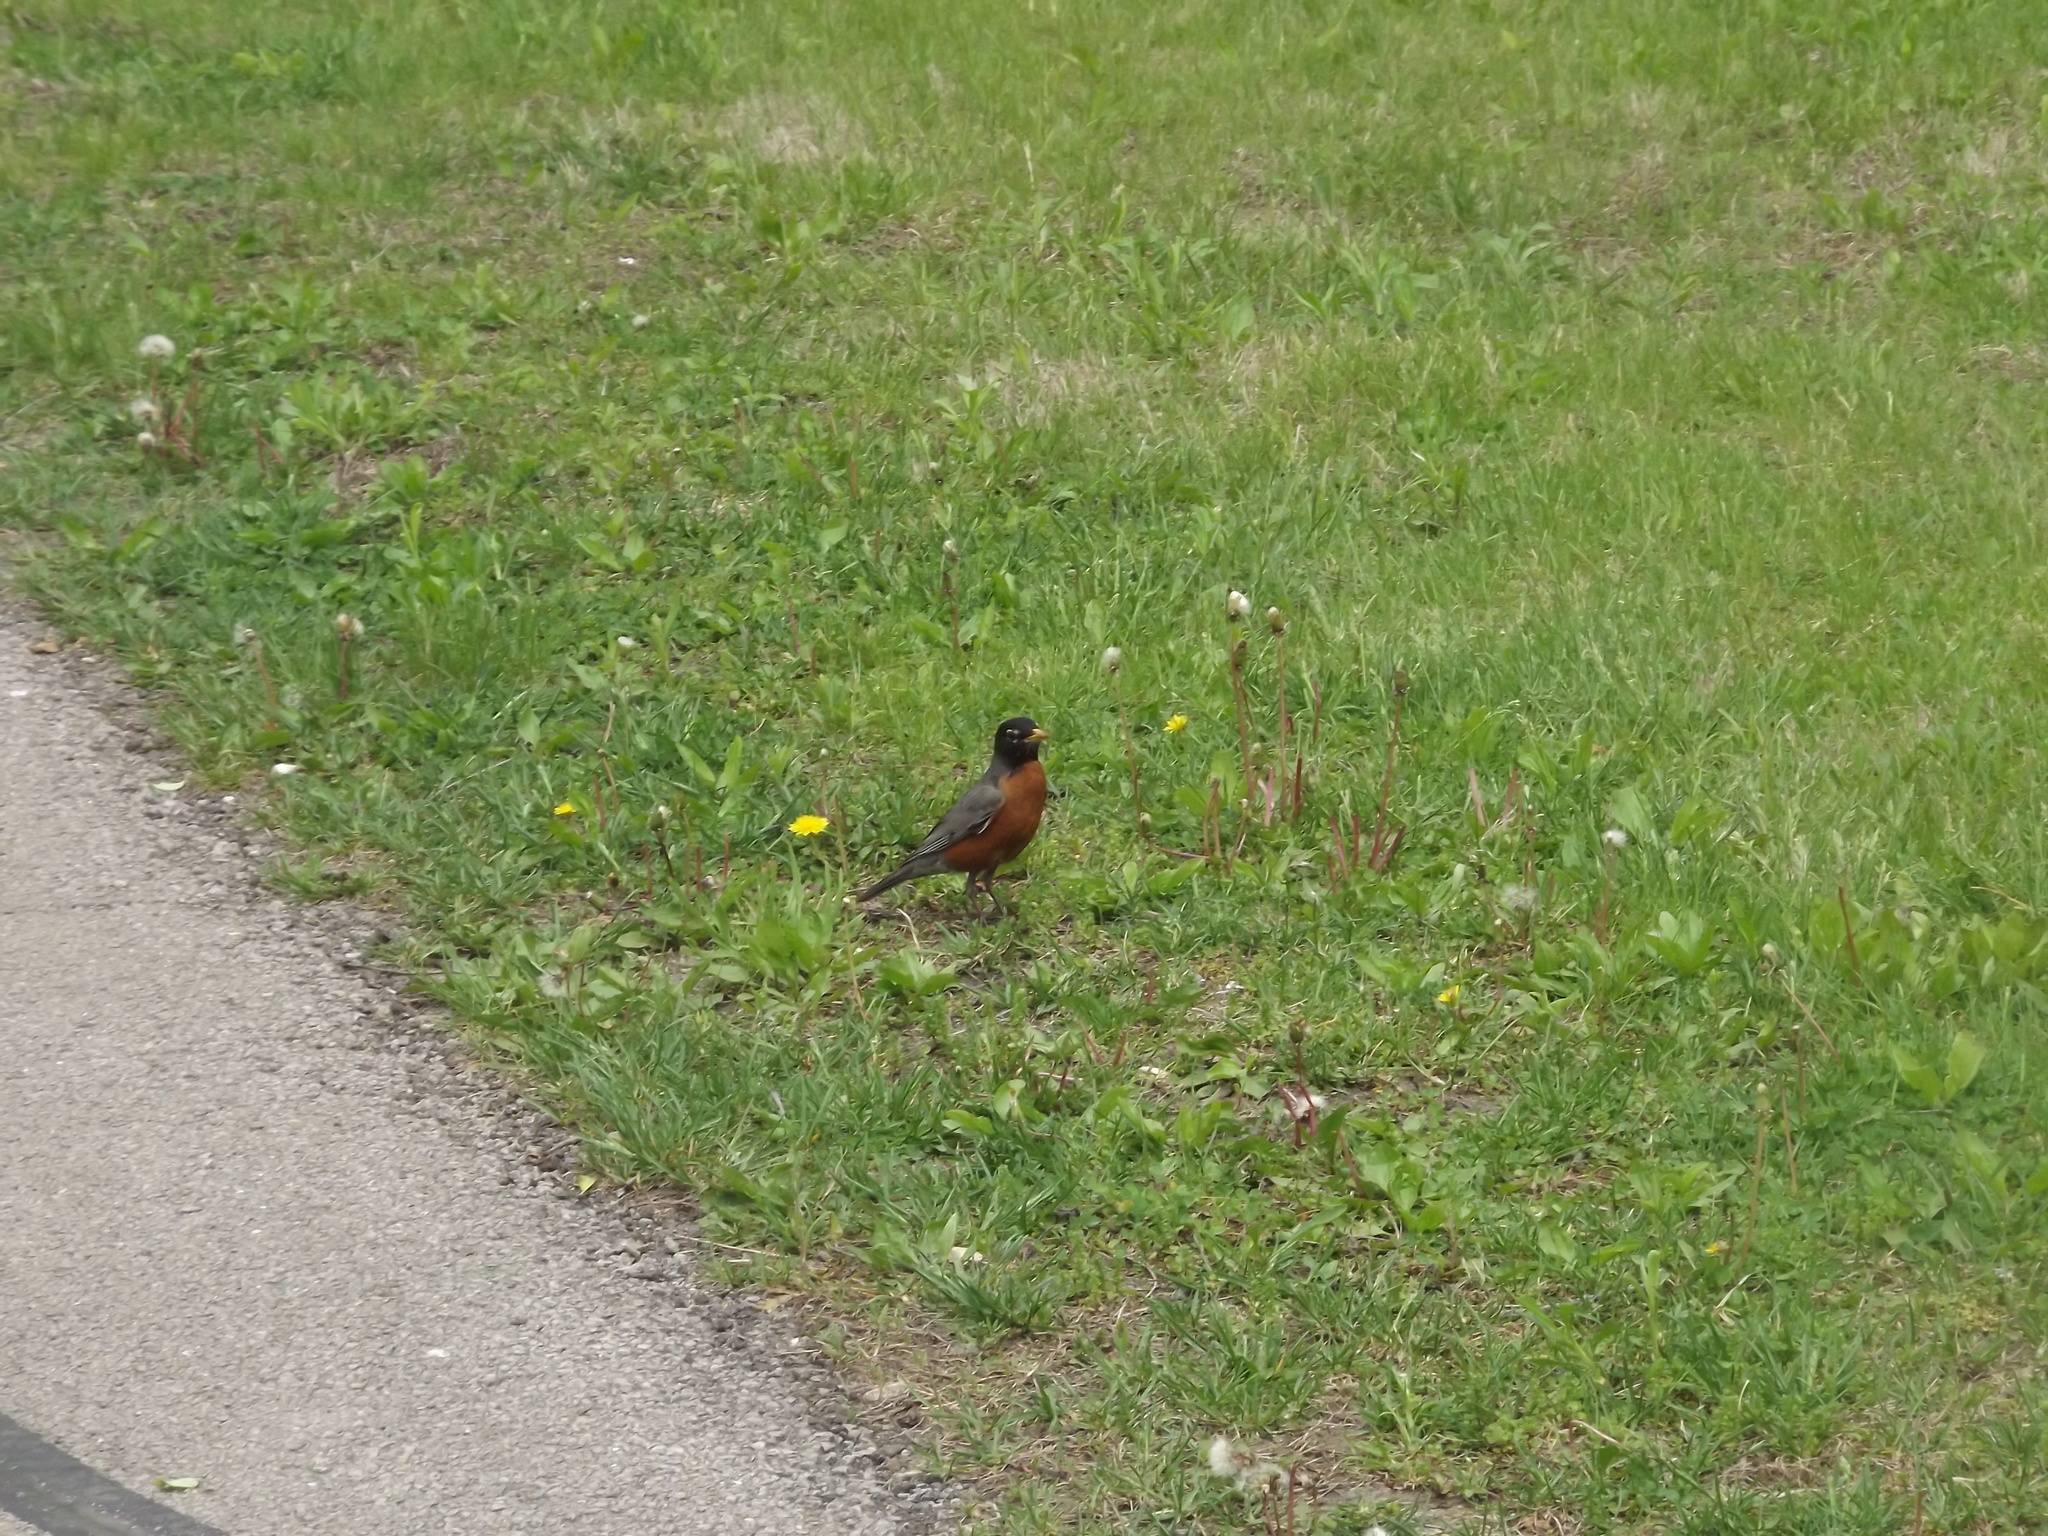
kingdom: Animalia
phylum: Chordata
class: Aves
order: Passeriformes
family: Turdidae
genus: Turdus
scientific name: Turdus migratorius
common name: American robin
